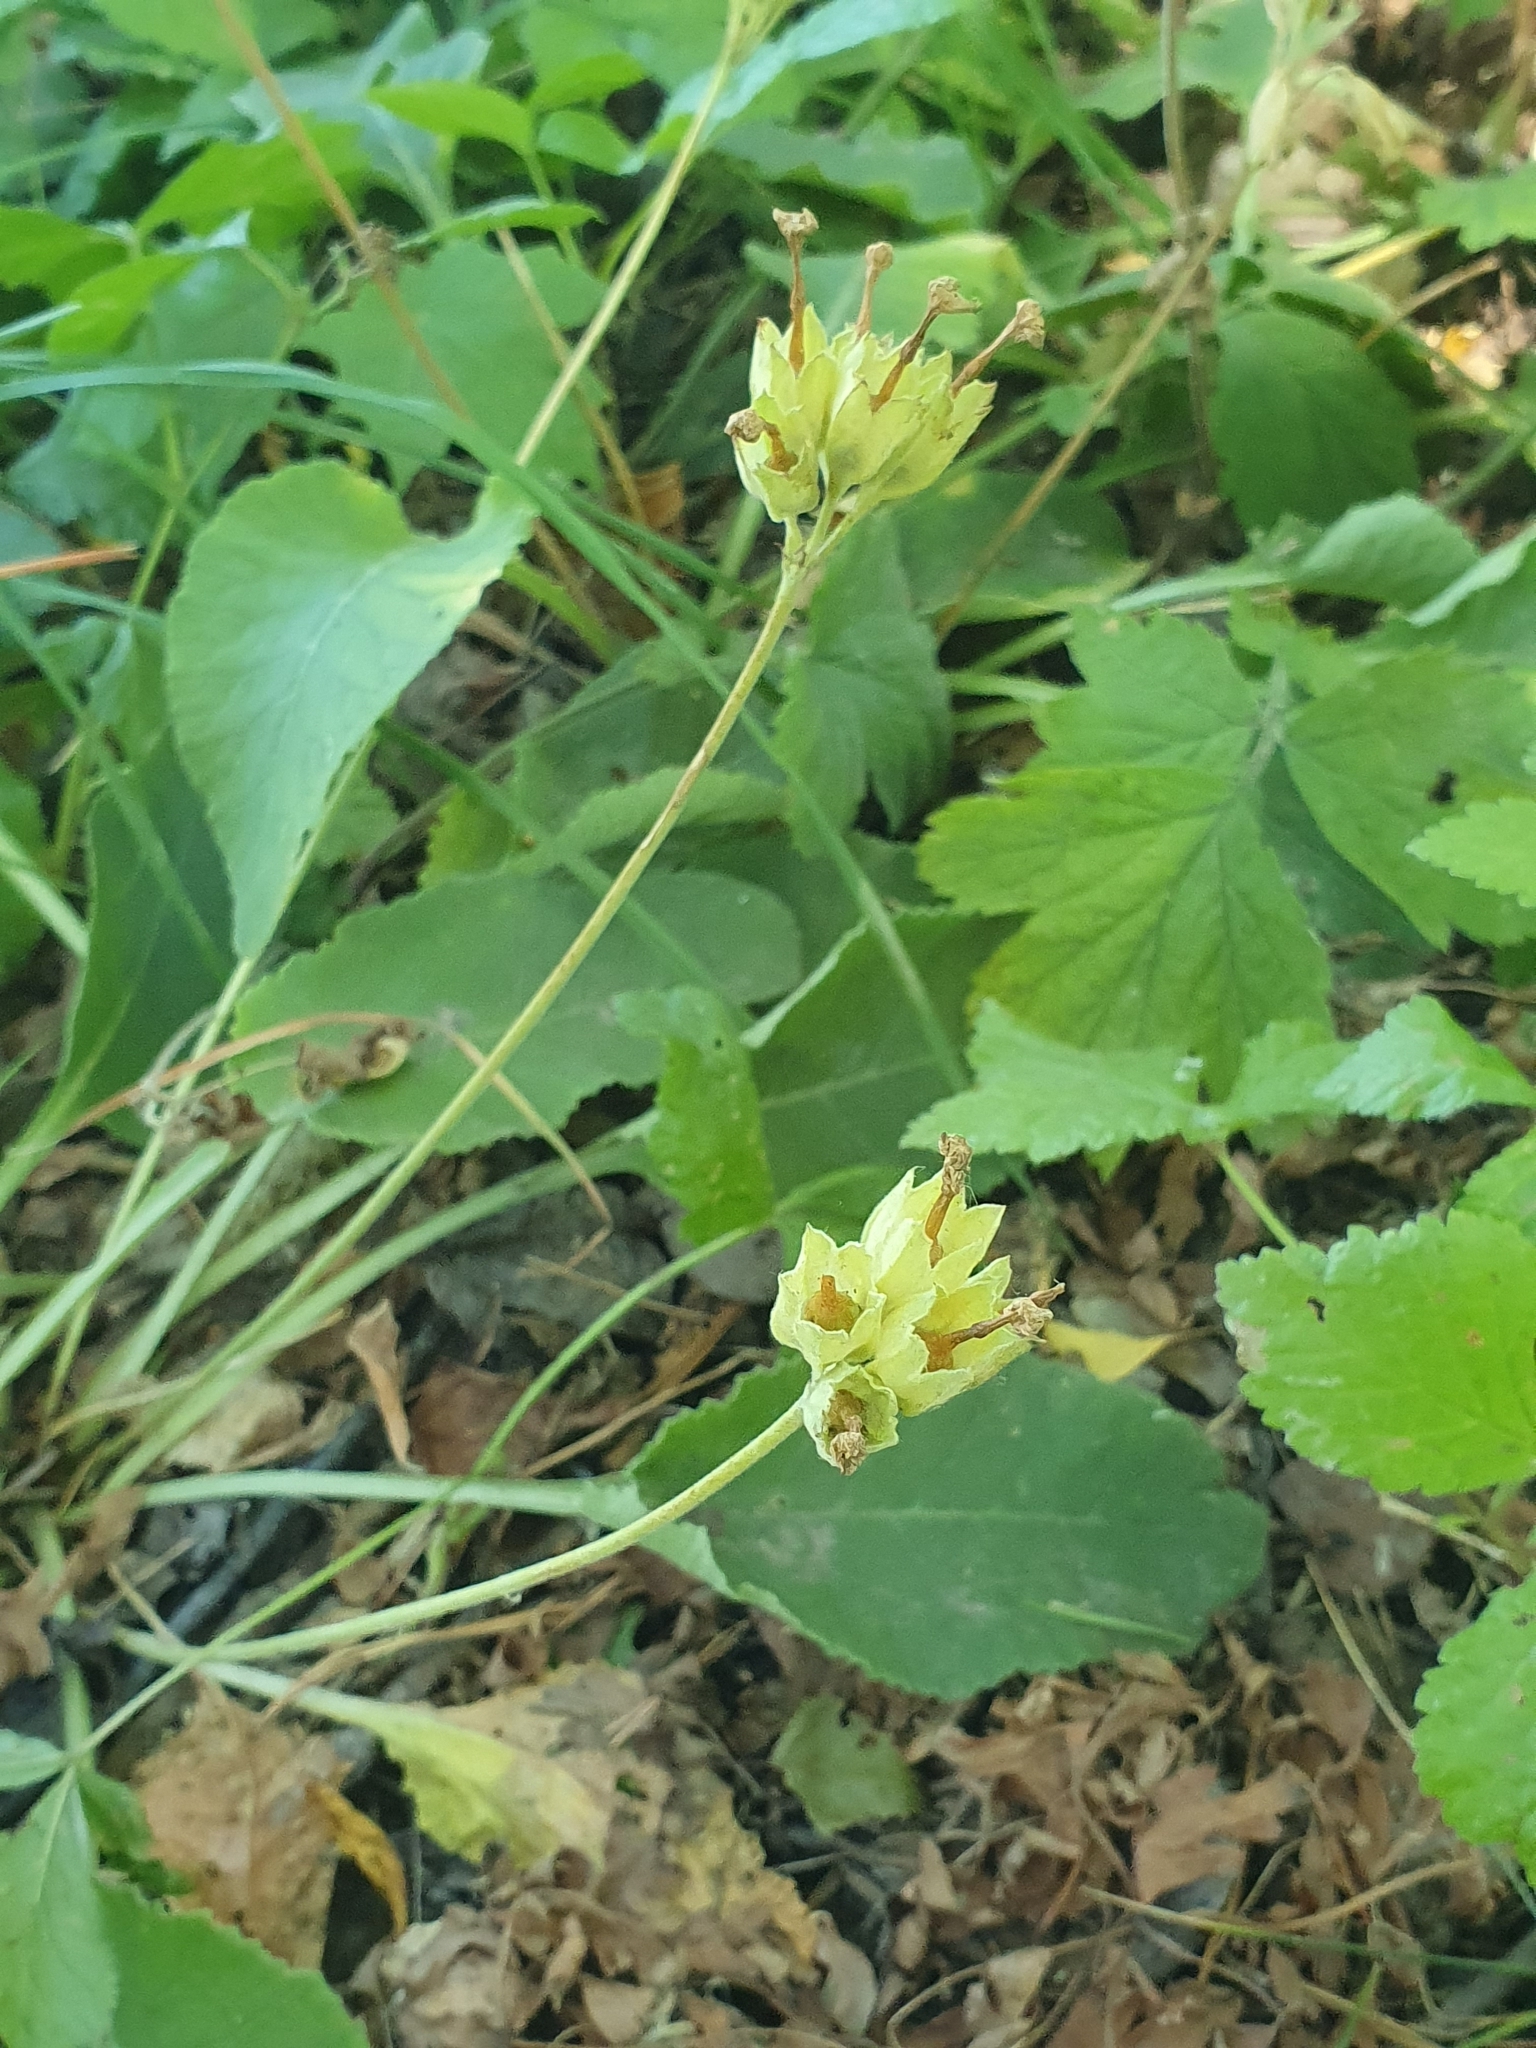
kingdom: Plantae
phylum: Tracheophyta
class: Magnoliopsida
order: Ericales
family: Primulaceae
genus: Primula
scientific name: Primula veris
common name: Cowslip
